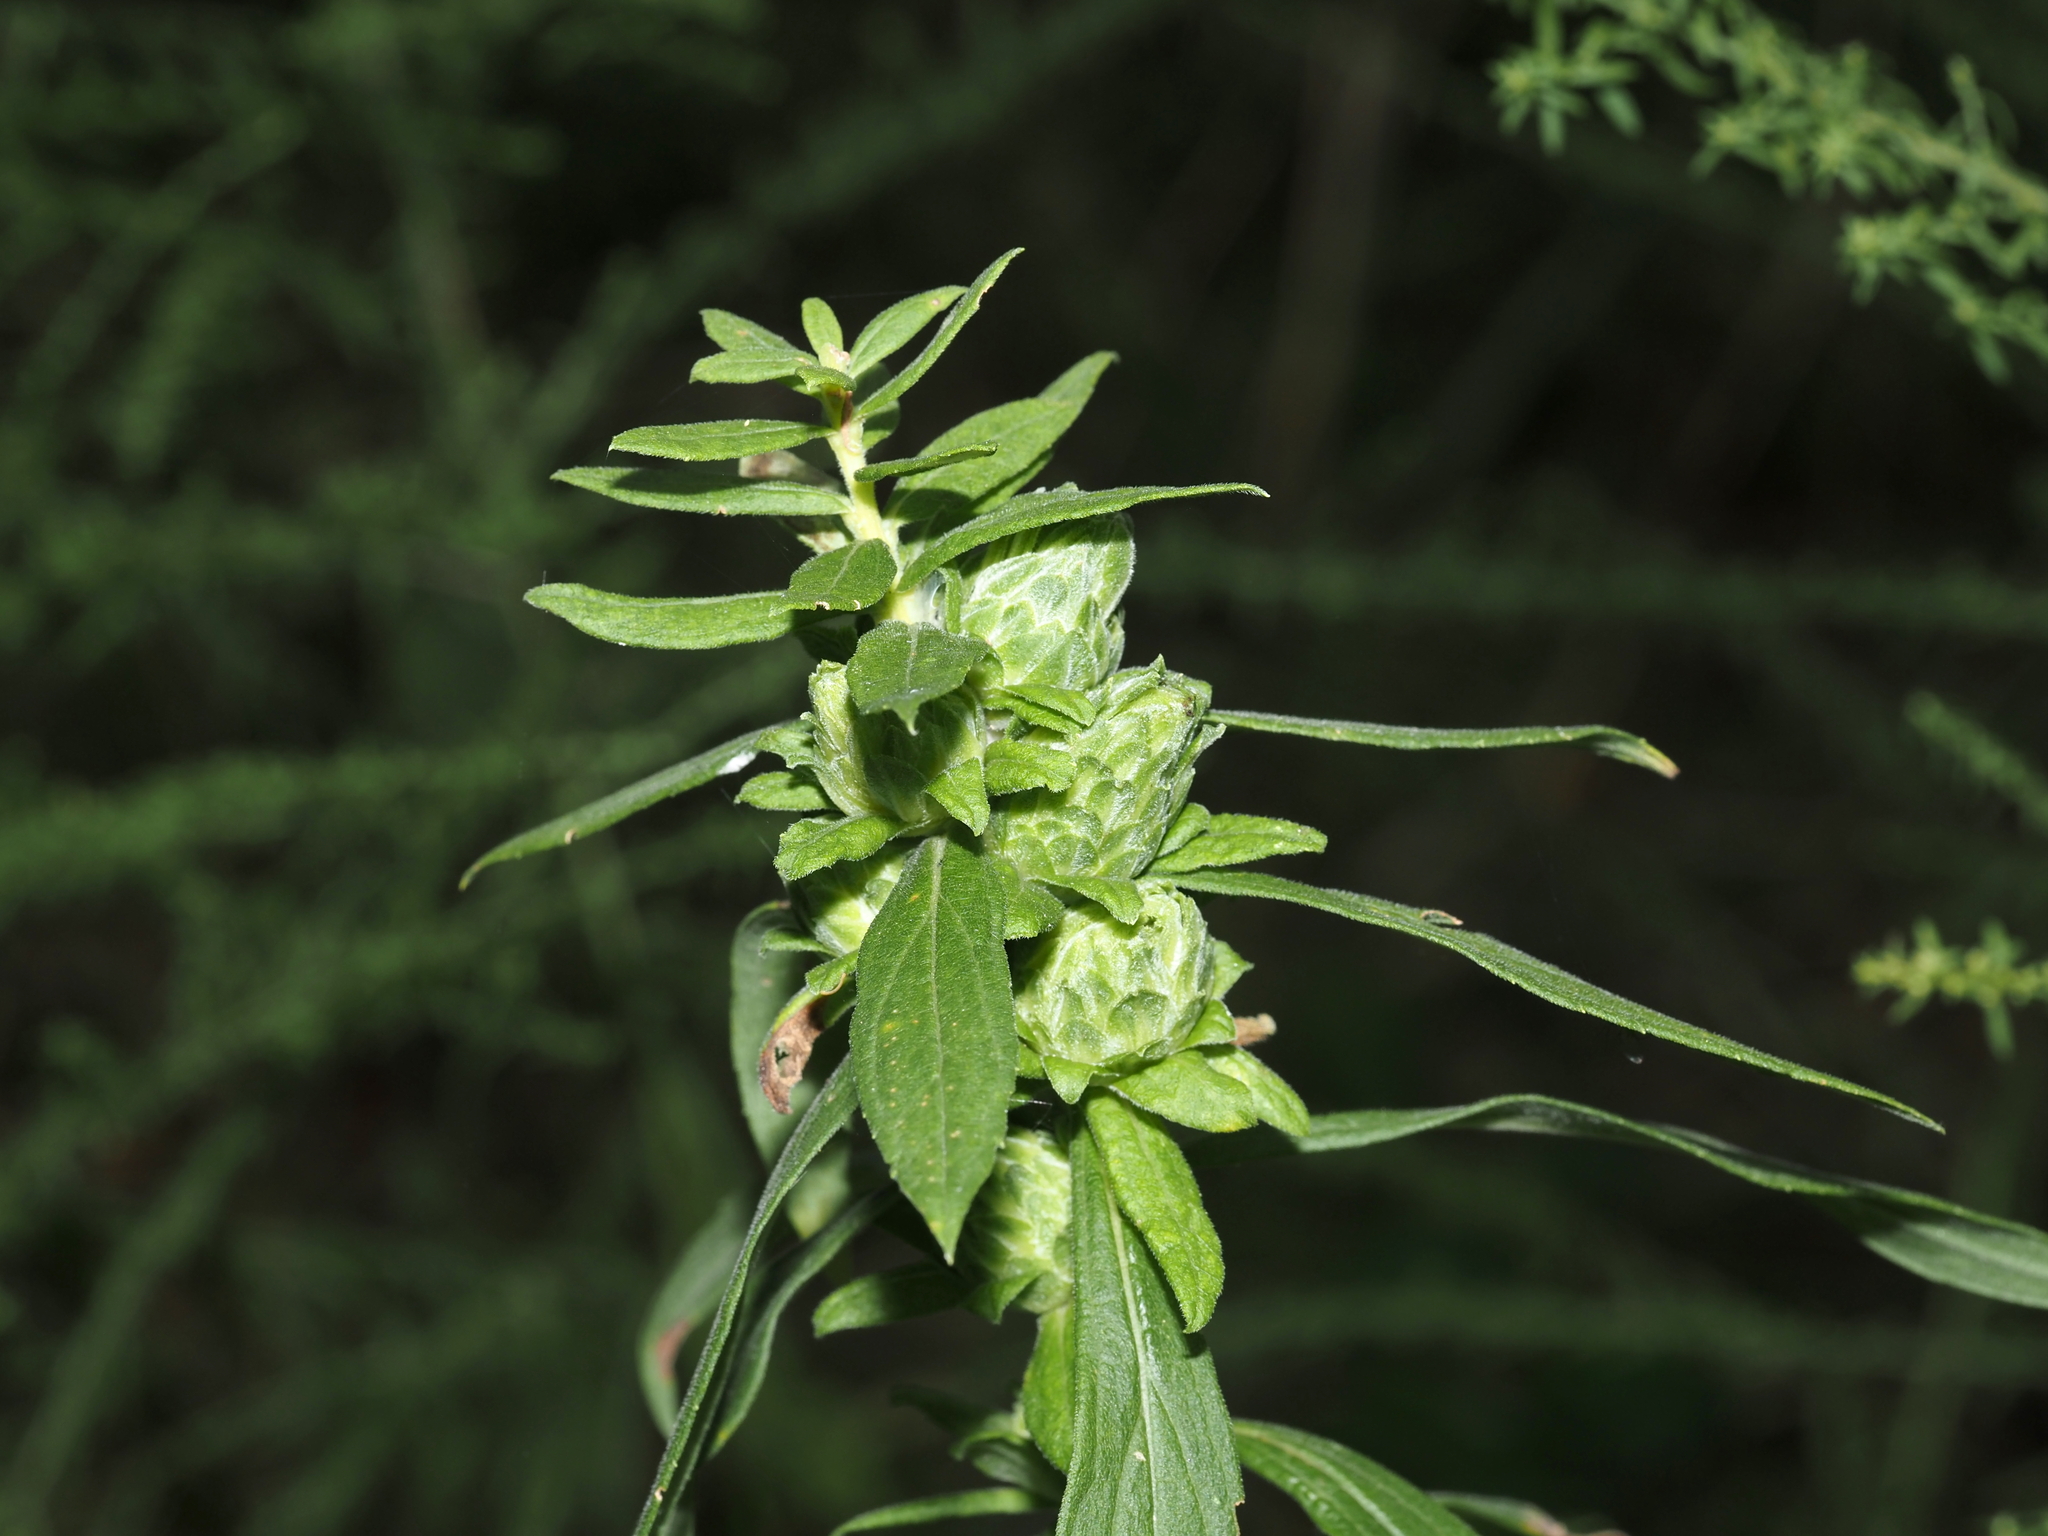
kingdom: Animalia
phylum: Arthropoda
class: Insecta
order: Diptera
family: Tephritidae
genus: Procecidochares
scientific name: Procecidochares atra
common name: Goldenrod brussels sprout gall fly
